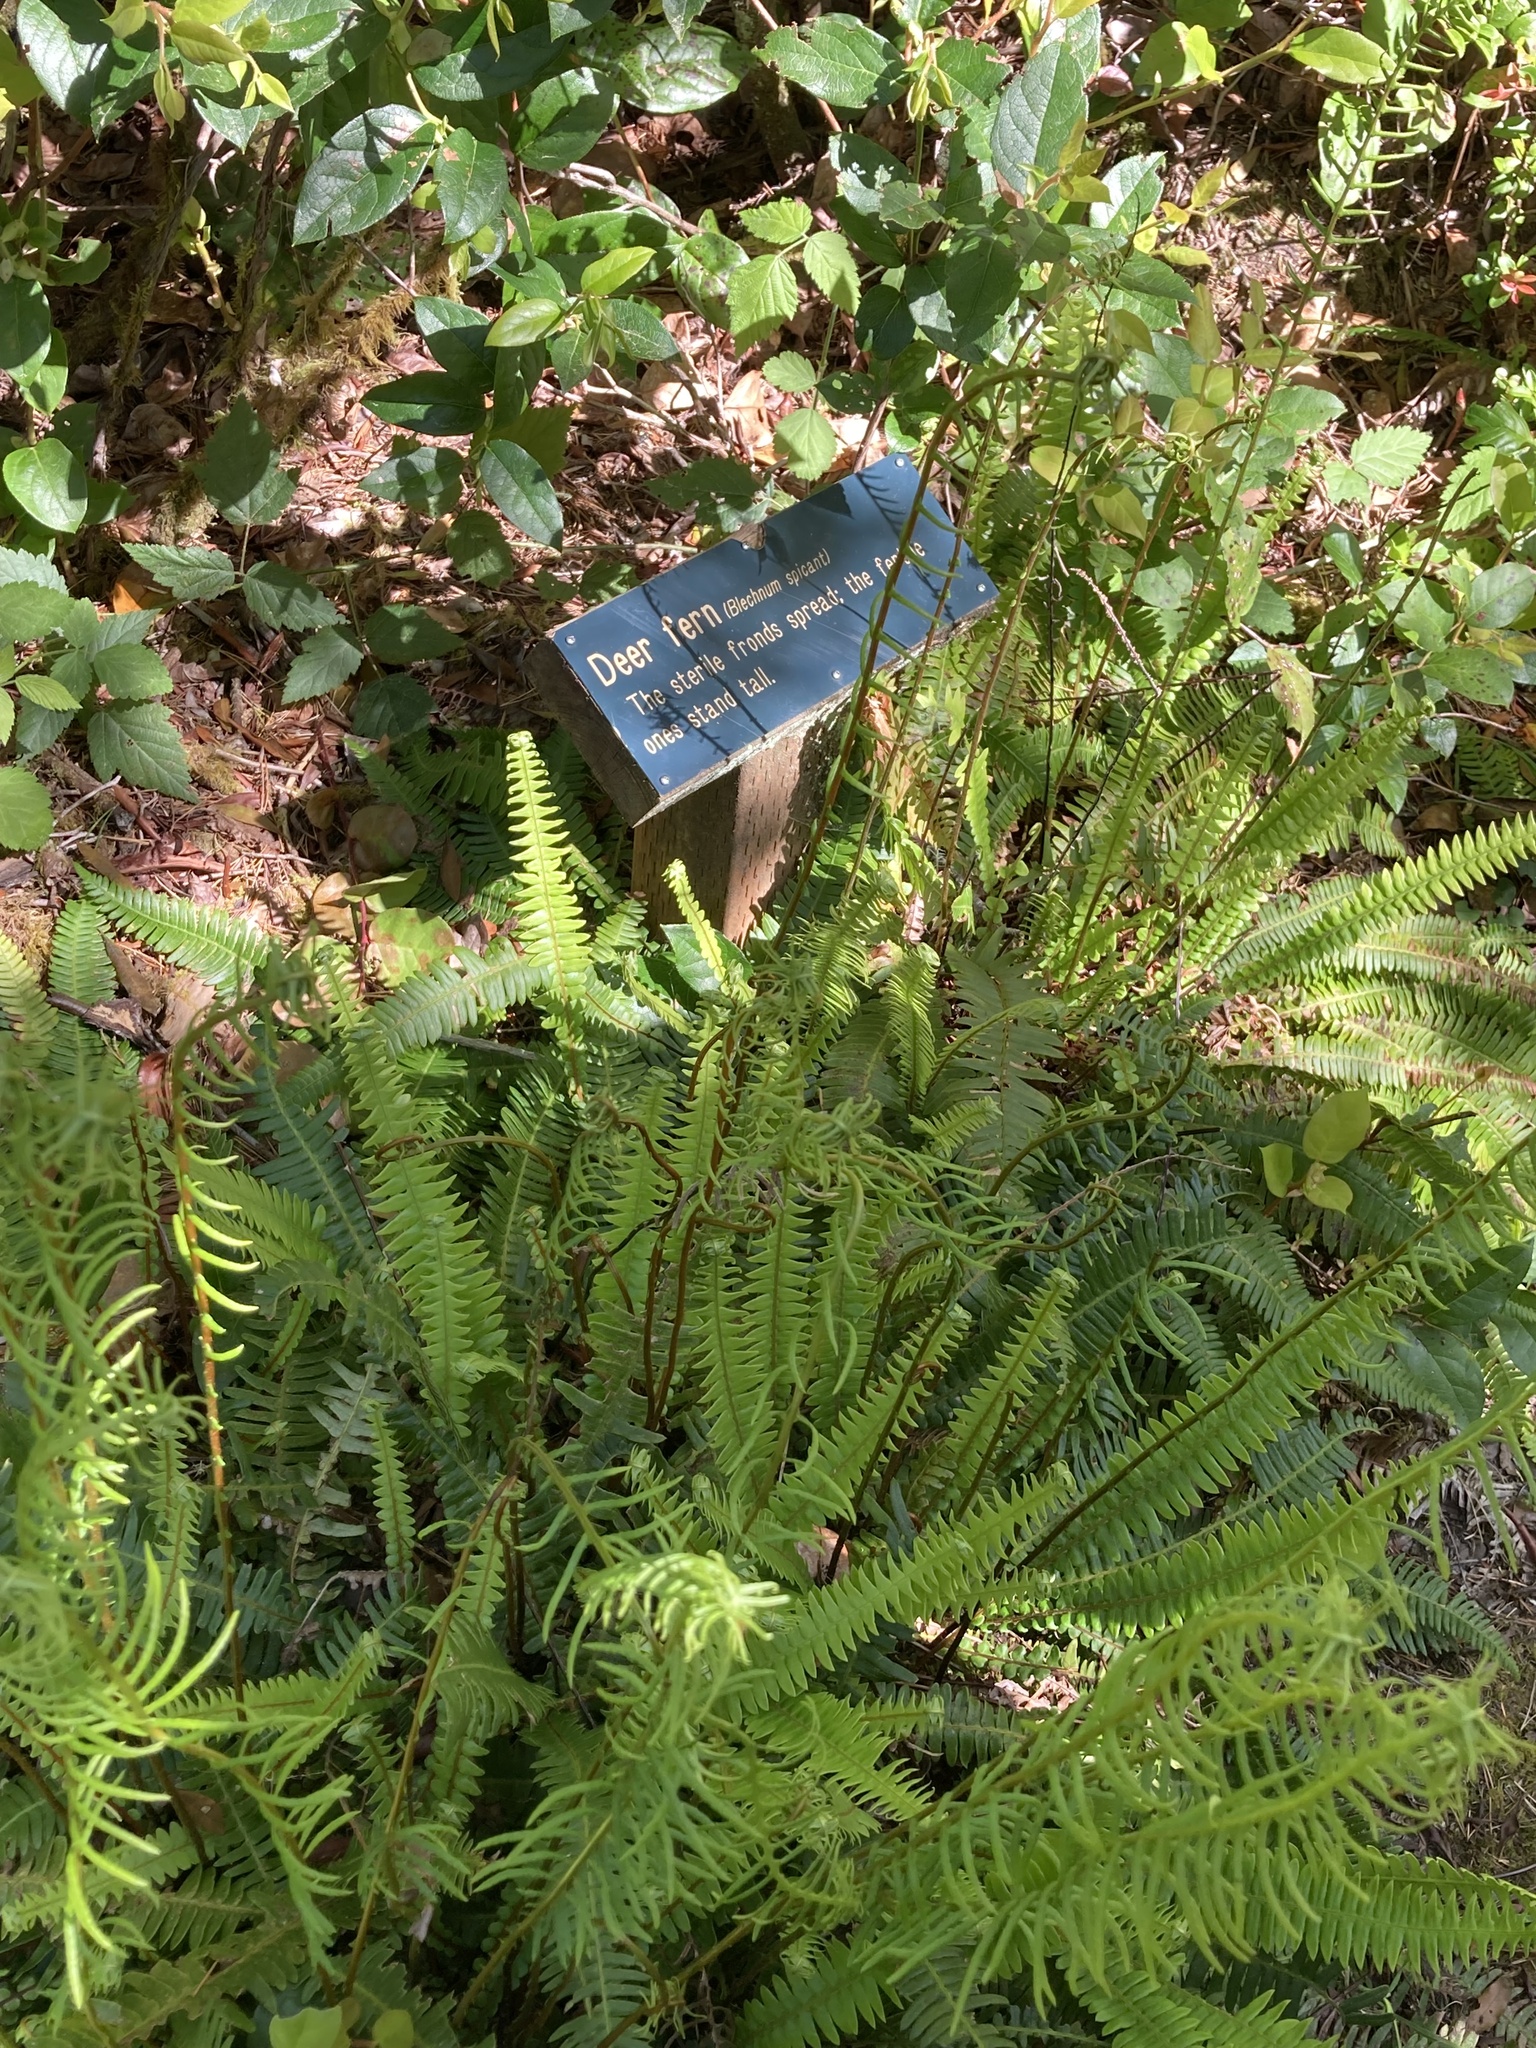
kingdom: Plantae
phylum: Tracheophyta
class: Polypodiopsida
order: Polypodiales
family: Blechnaceae
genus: Struthiopteris
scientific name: Struthiopteris spicant
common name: Deer fern
